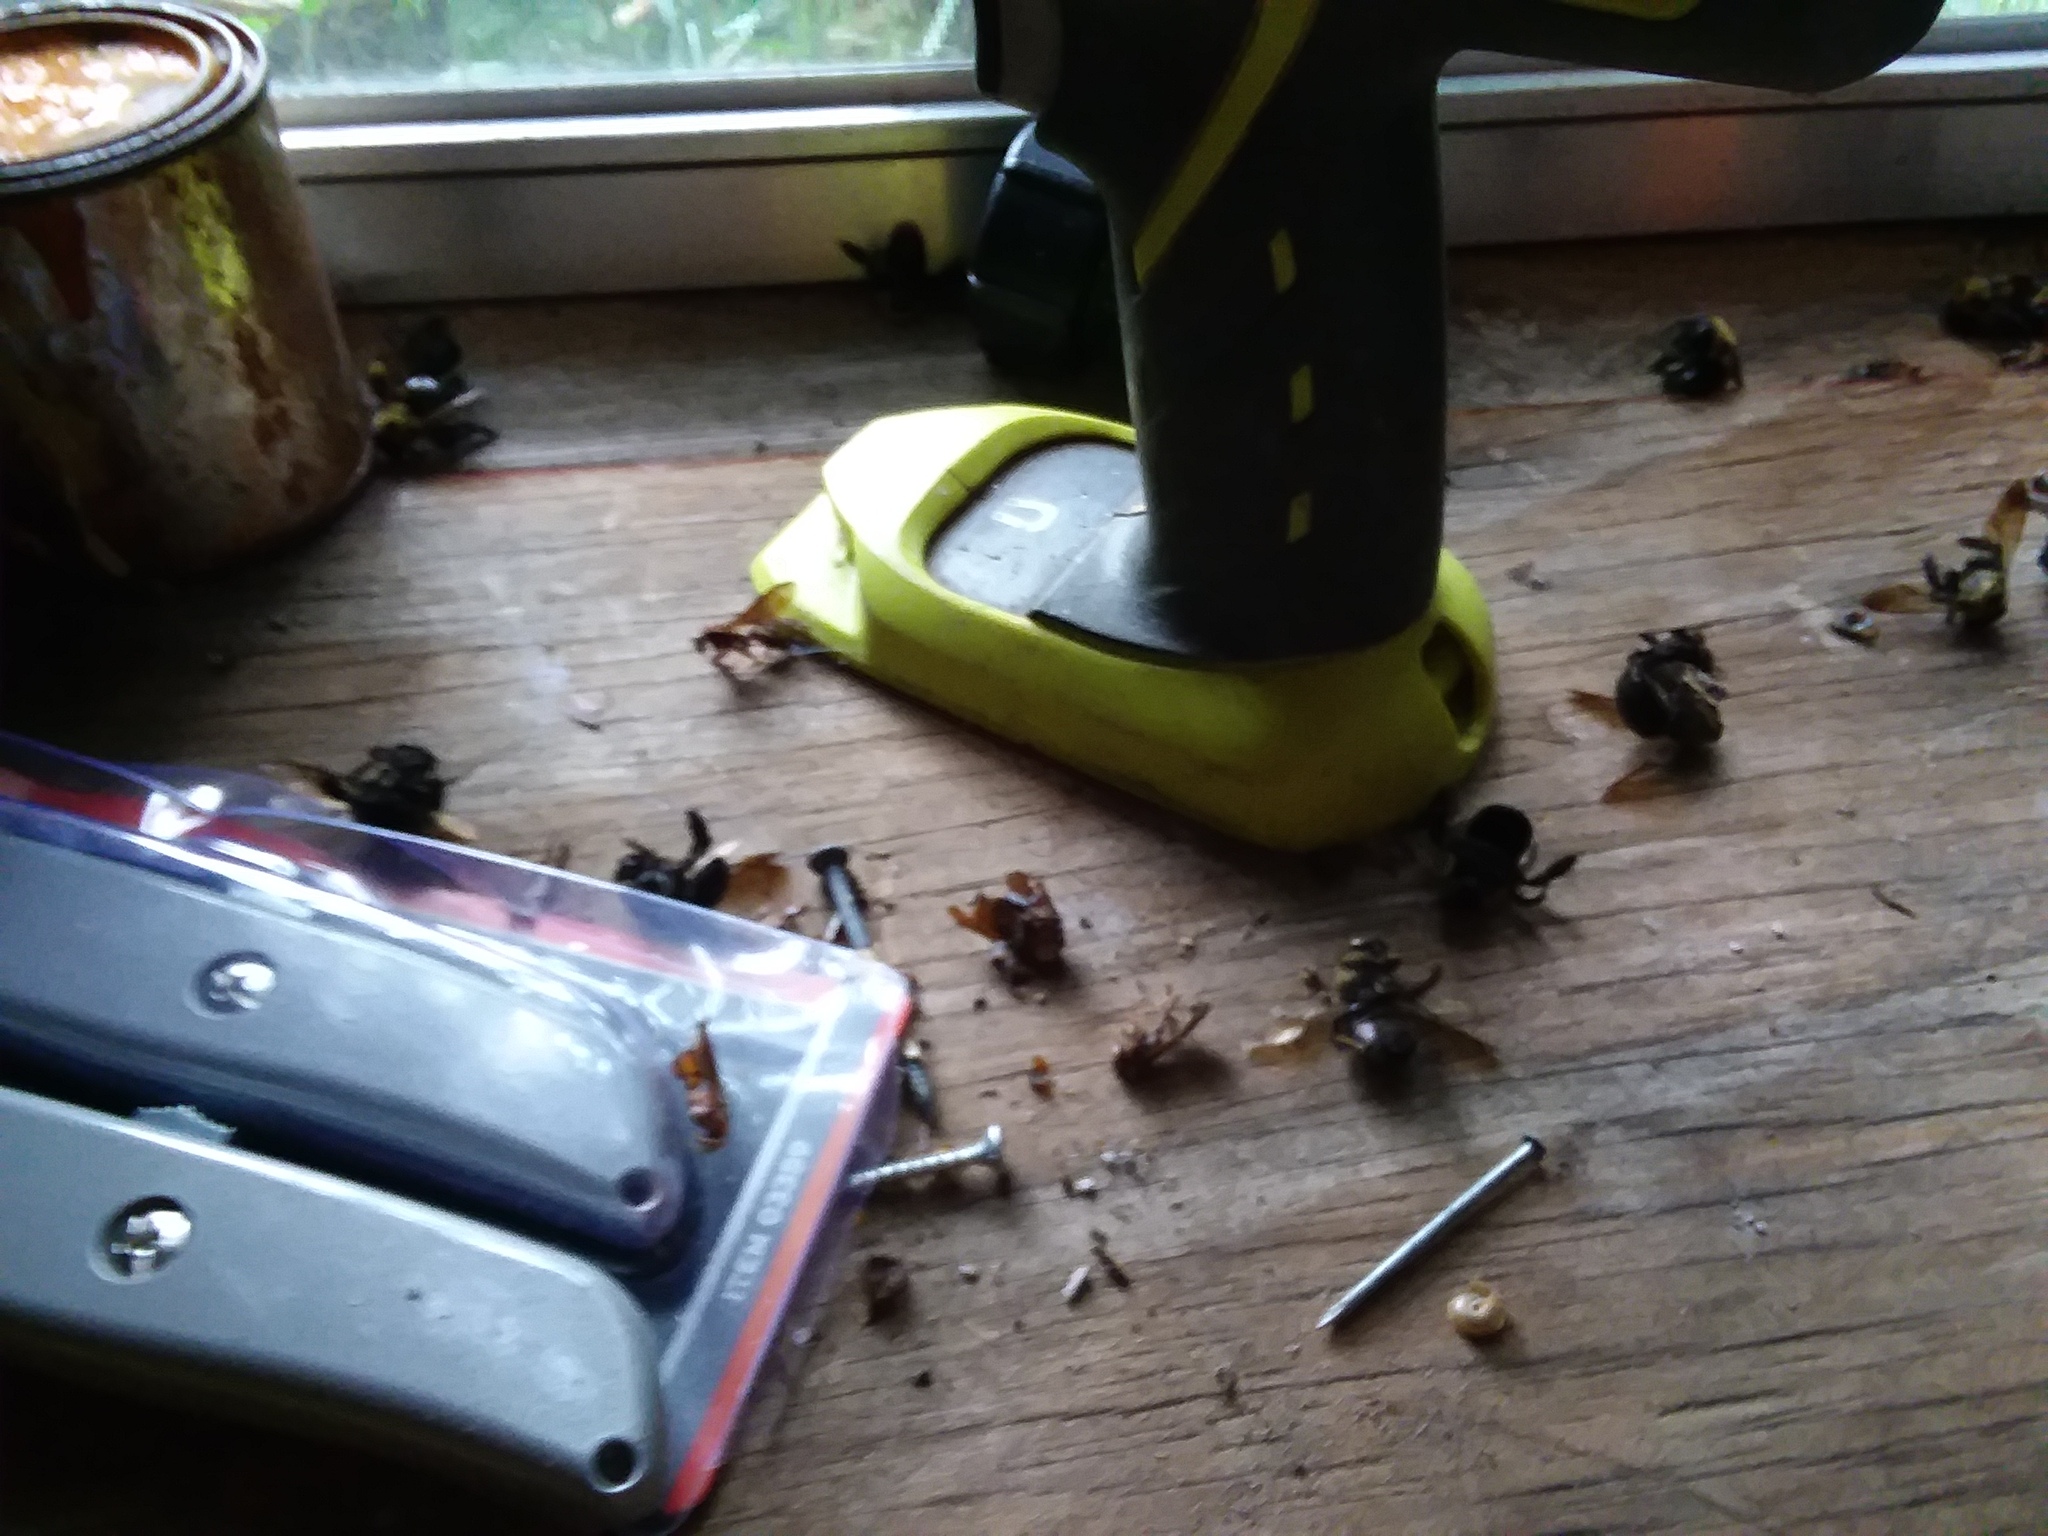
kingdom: Animalia
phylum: Arthropoda
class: Insecta
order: Hymenoptera
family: Apidae
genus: Xylocopa
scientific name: Xylocopa virginica
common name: Carpenter bee
